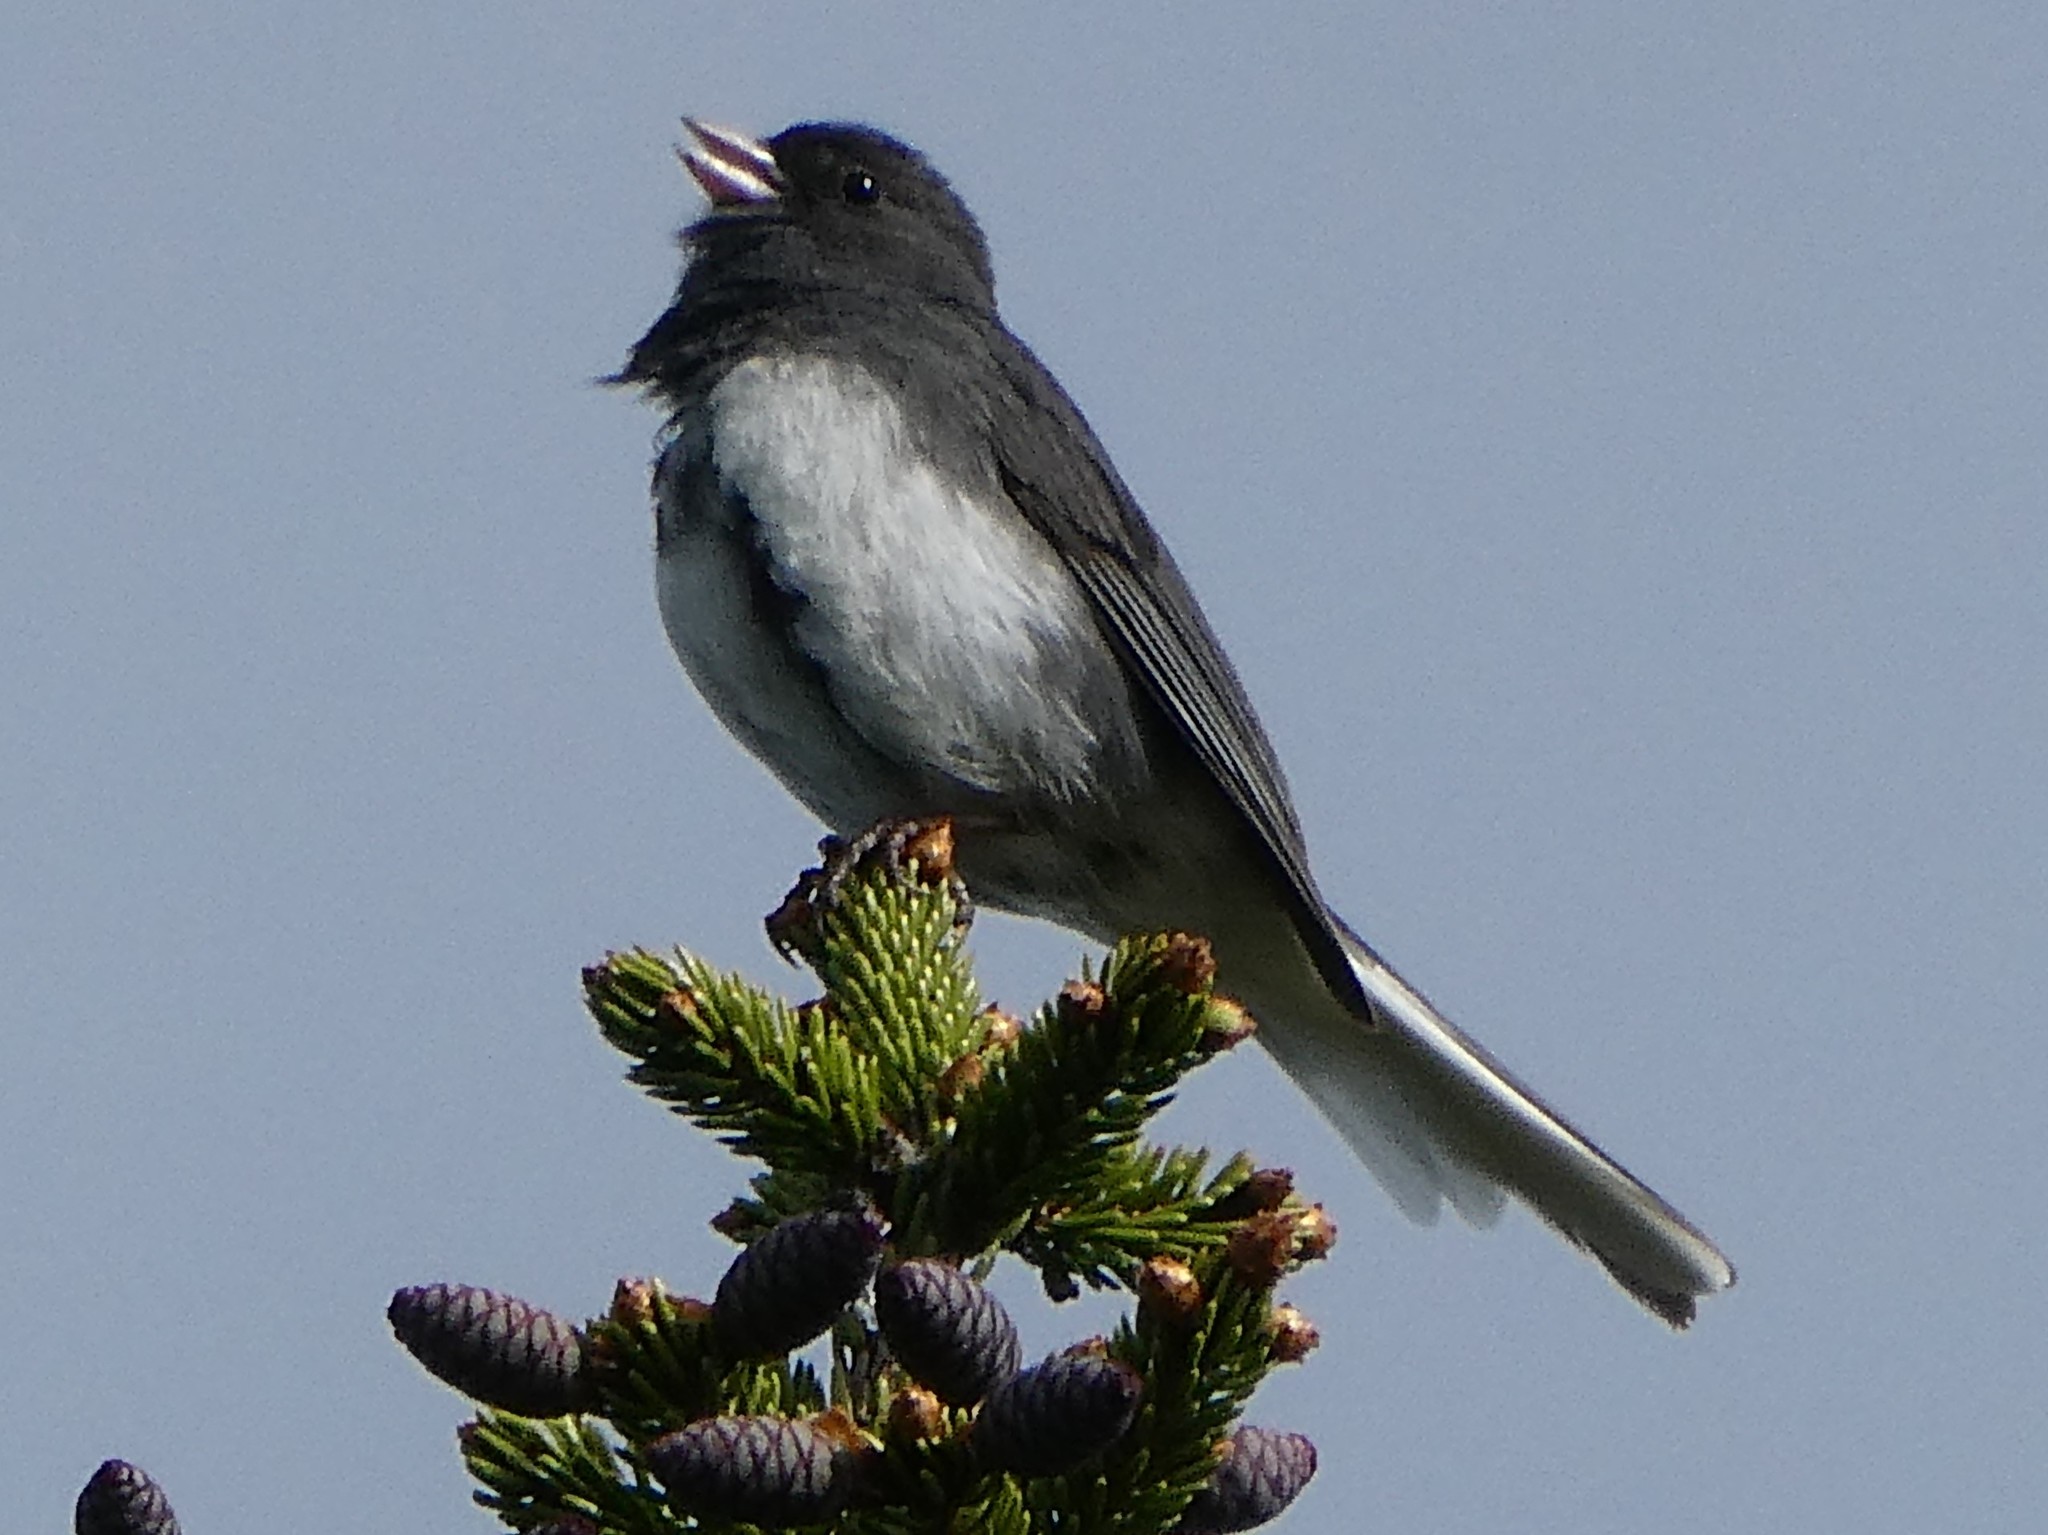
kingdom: Animalia
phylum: Chordata
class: Aves
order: Passeriformes
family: Passerellidae
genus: Junco
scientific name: Junco hyemalis
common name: Dark-eyed junco
